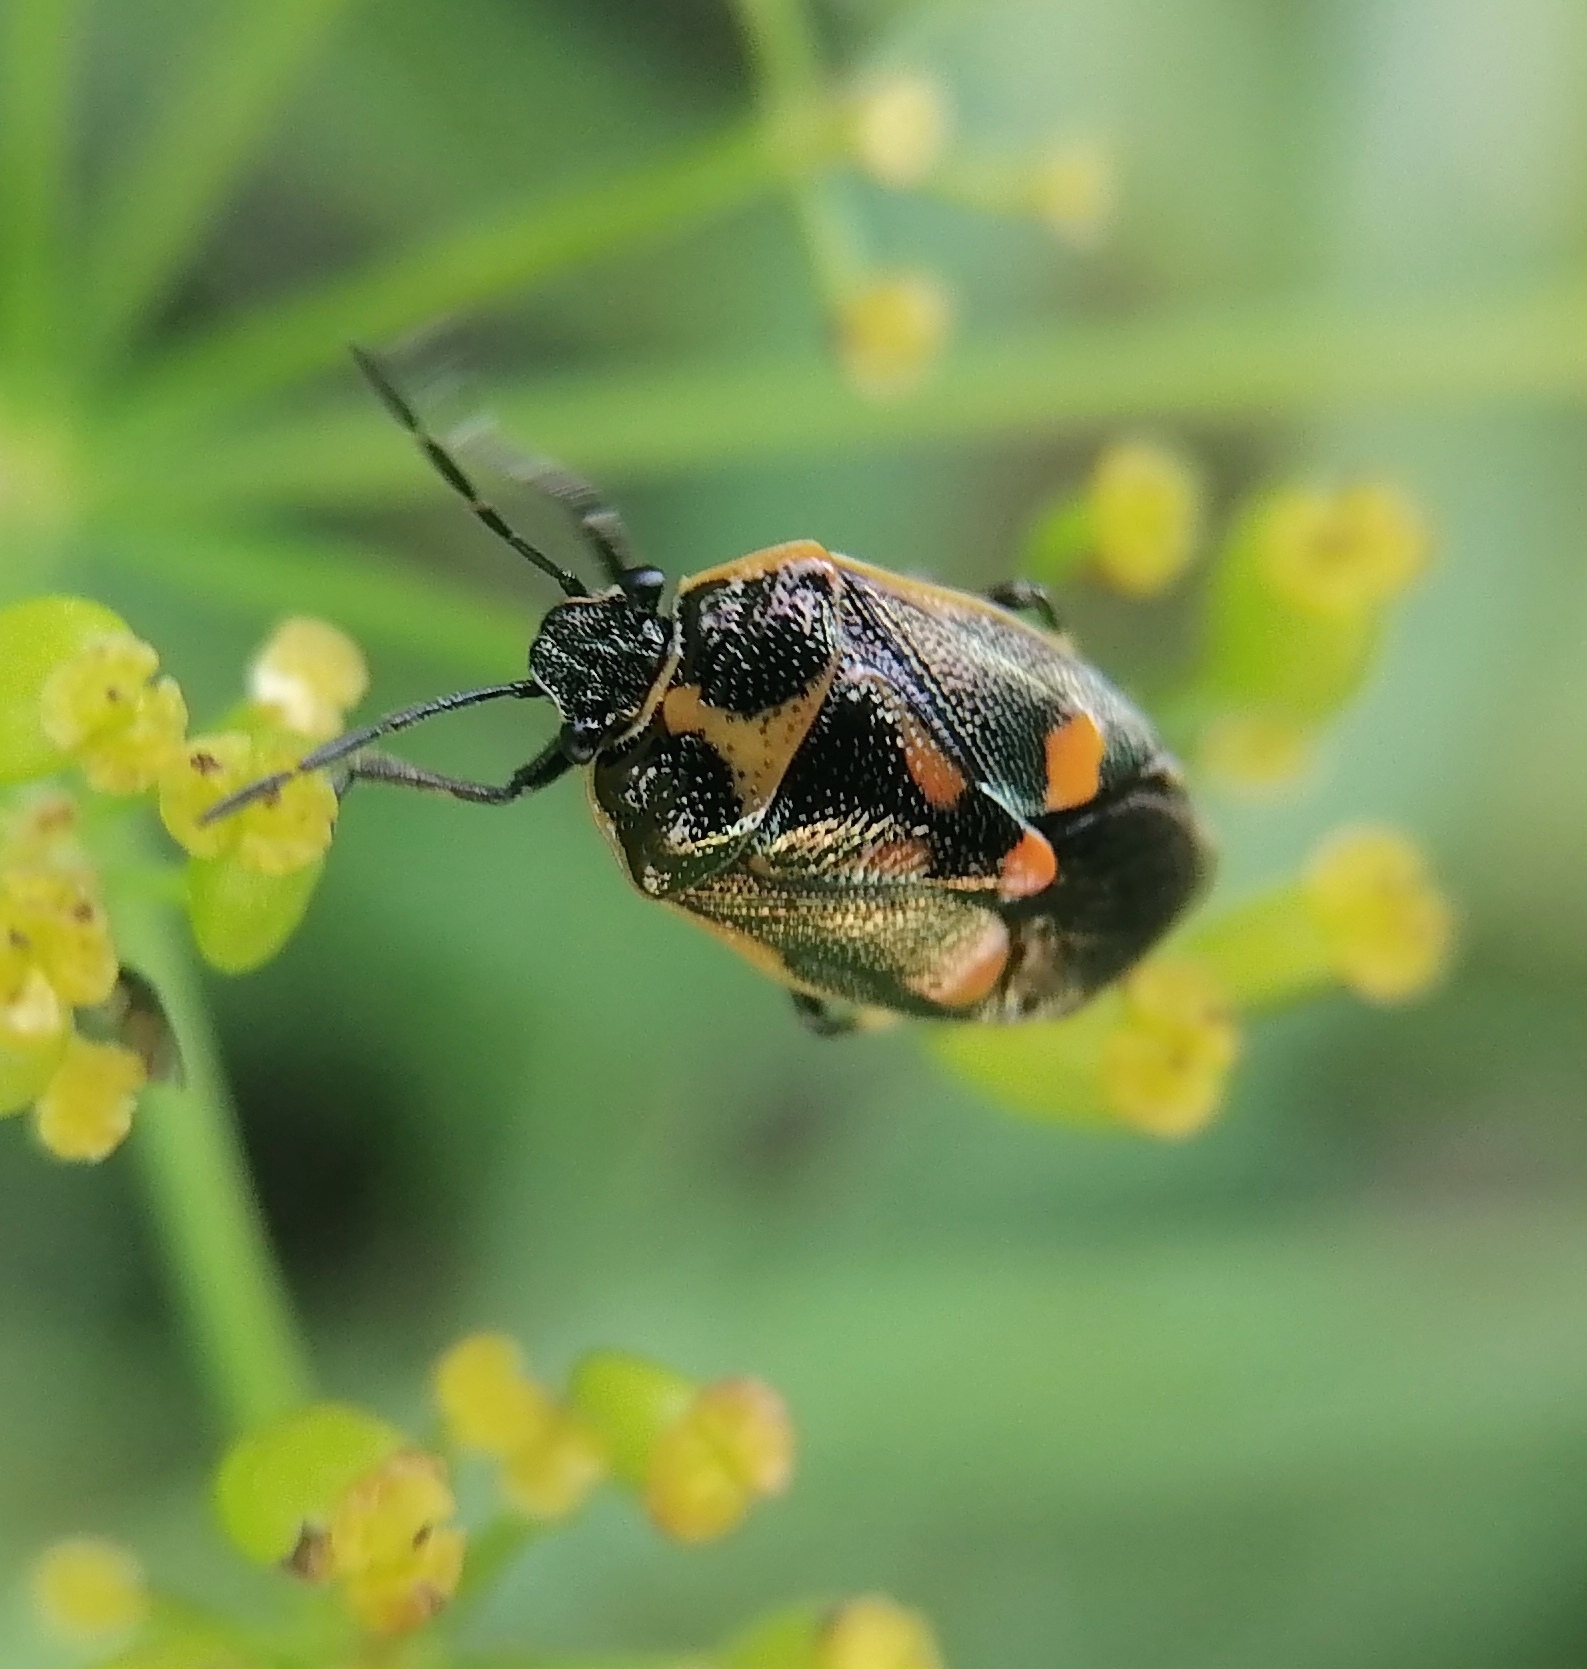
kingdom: Animalia
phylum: Arthropoda
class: Insecta
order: Hemiptera
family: Pentatomidae
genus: Eurydema
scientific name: Eurydema oleracea
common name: Cabbage bug
